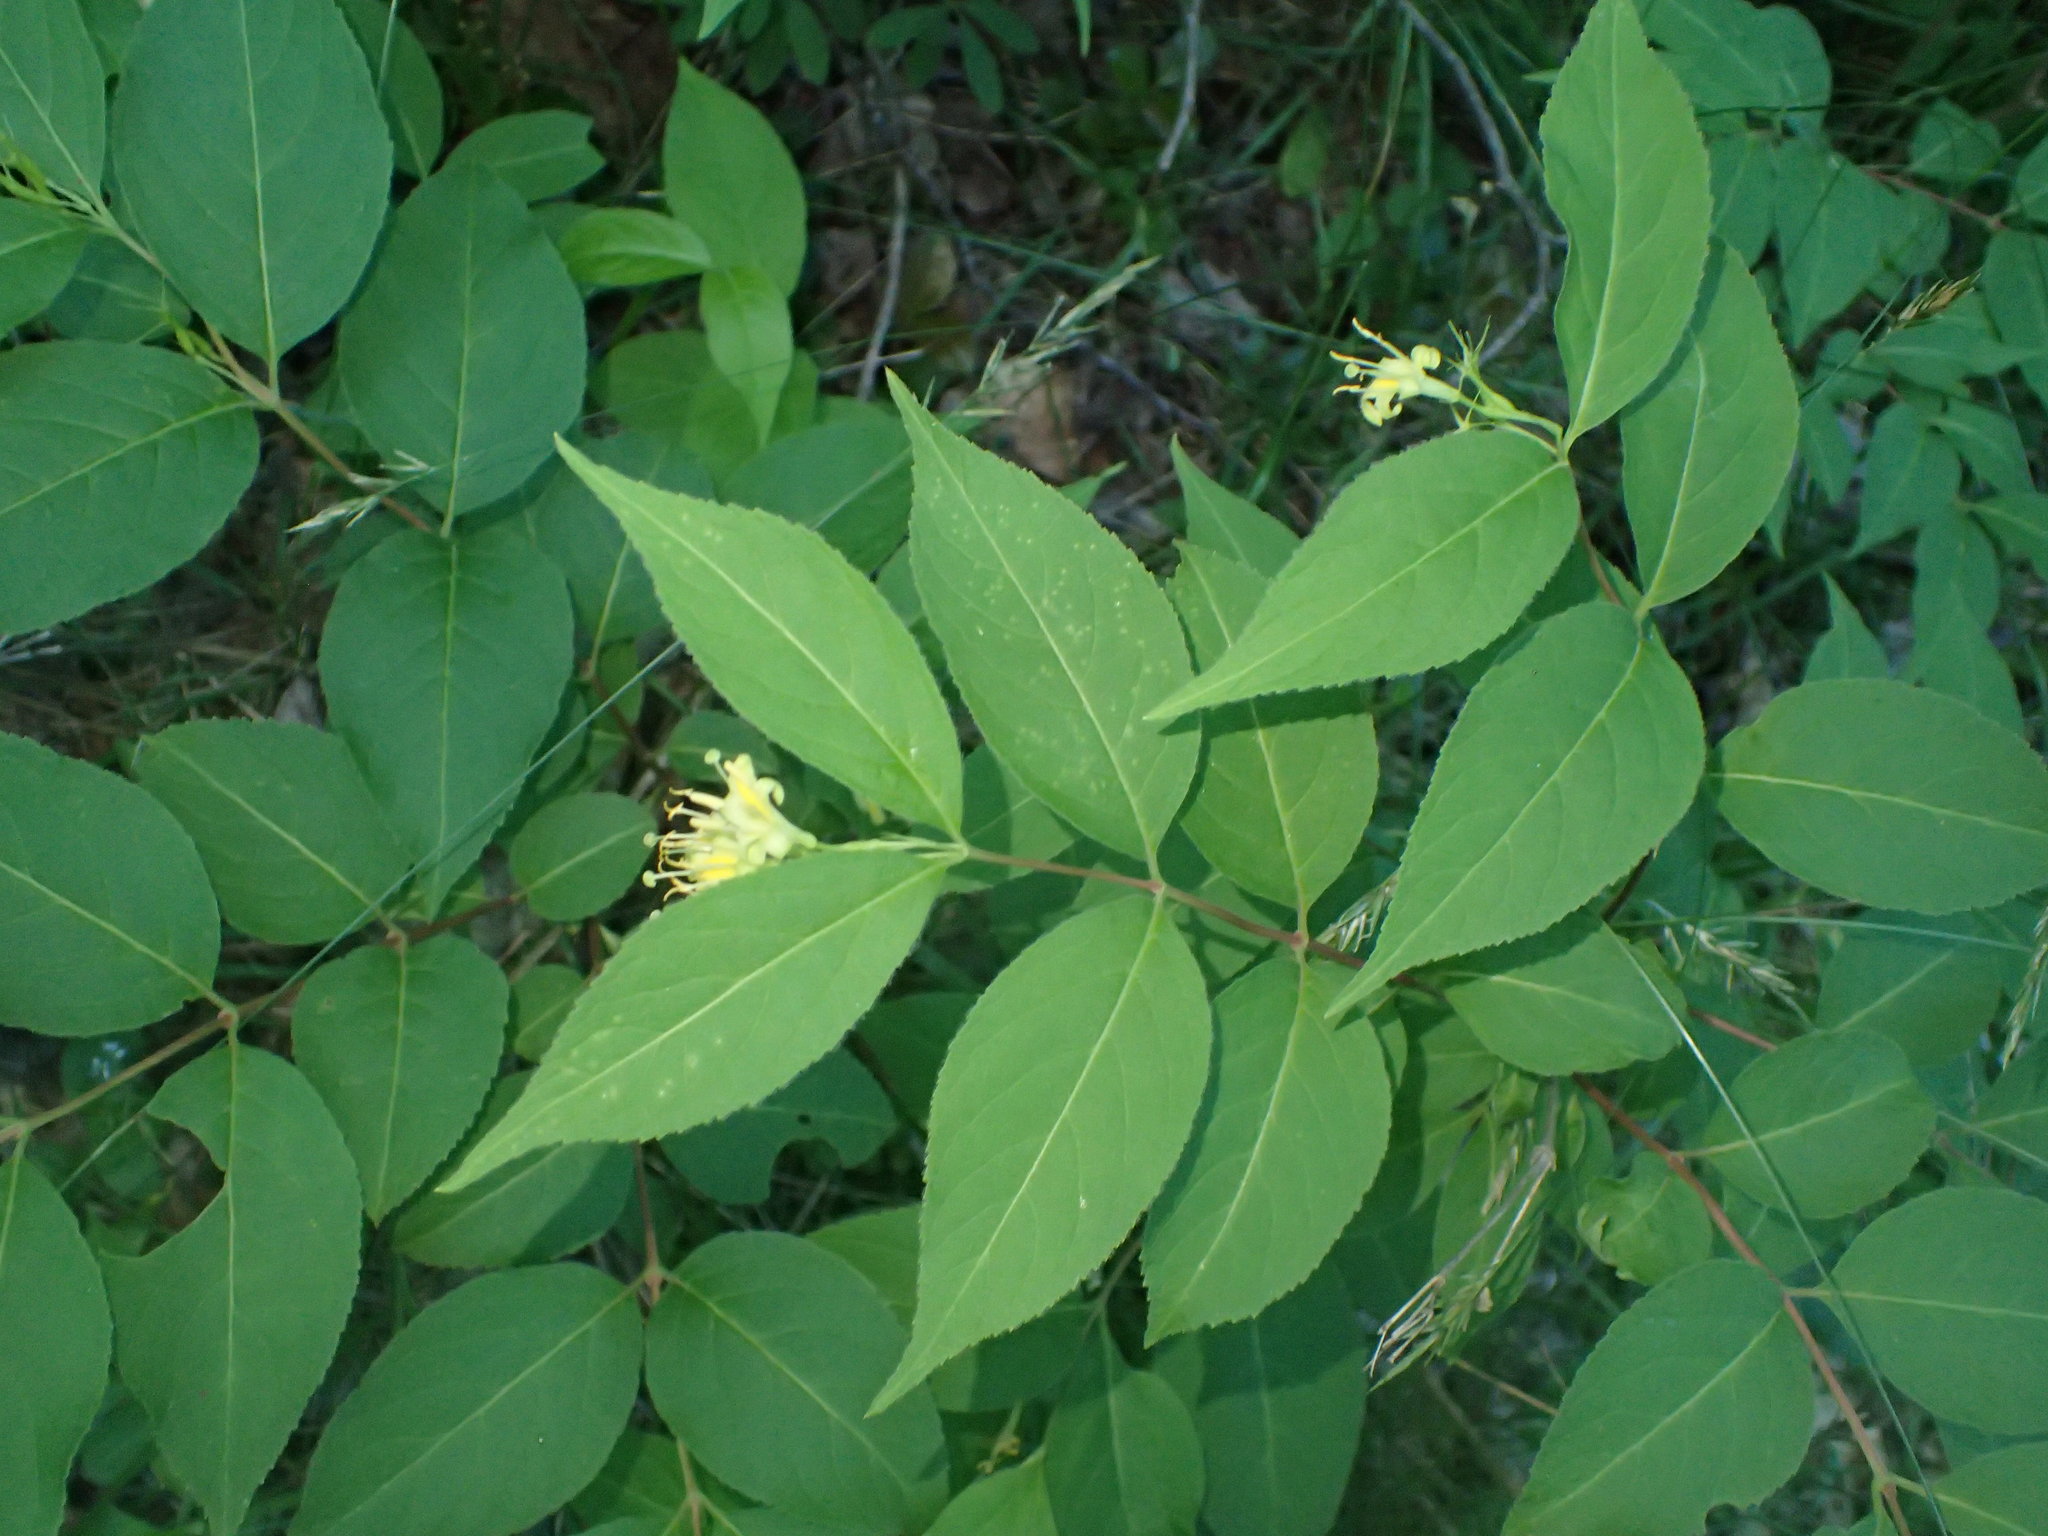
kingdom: Plantae
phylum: Tracheophyta
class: Magnoliopsida
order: Dipsacales
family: Caprifoliaceae
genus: Diervilla
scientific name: Diervilla lonicera
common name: Bush-honeysuckle
